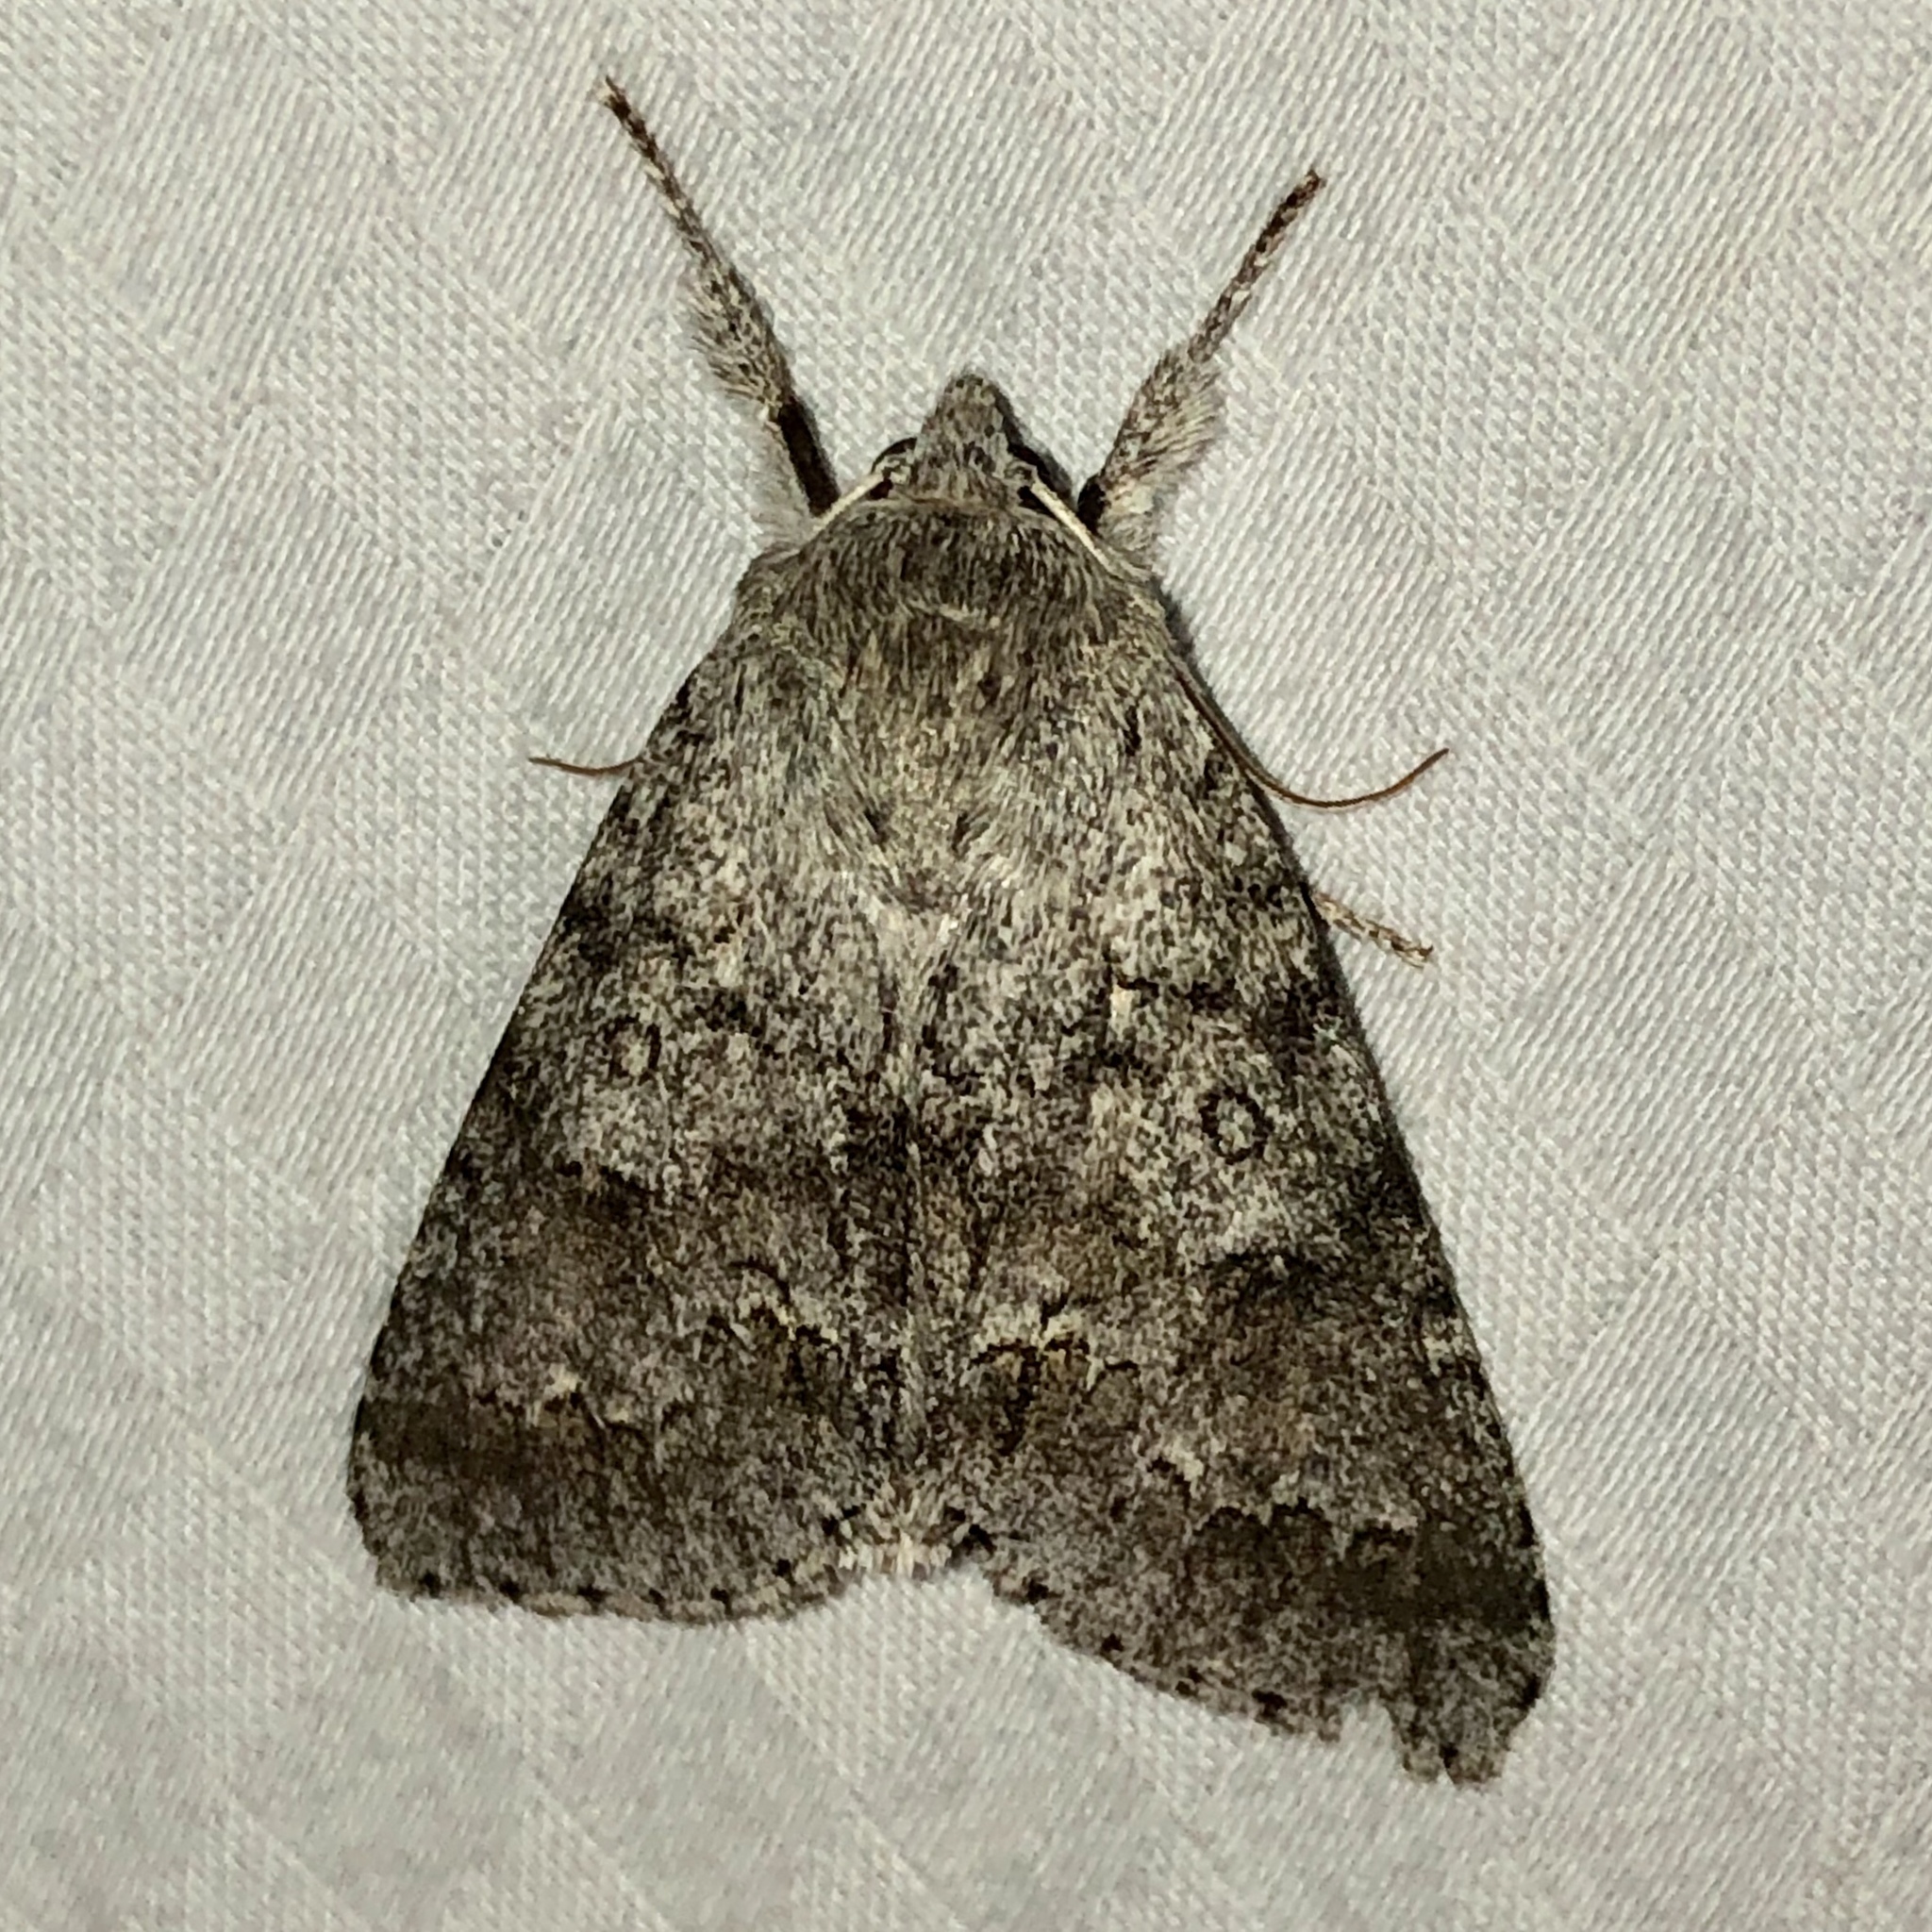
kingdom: Animalia
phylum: Arthropoda
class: Insecta
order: Lepidoptera
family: Noctuidae
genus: Acronicta
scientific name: Acronicta insita
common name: Large gray dagger
